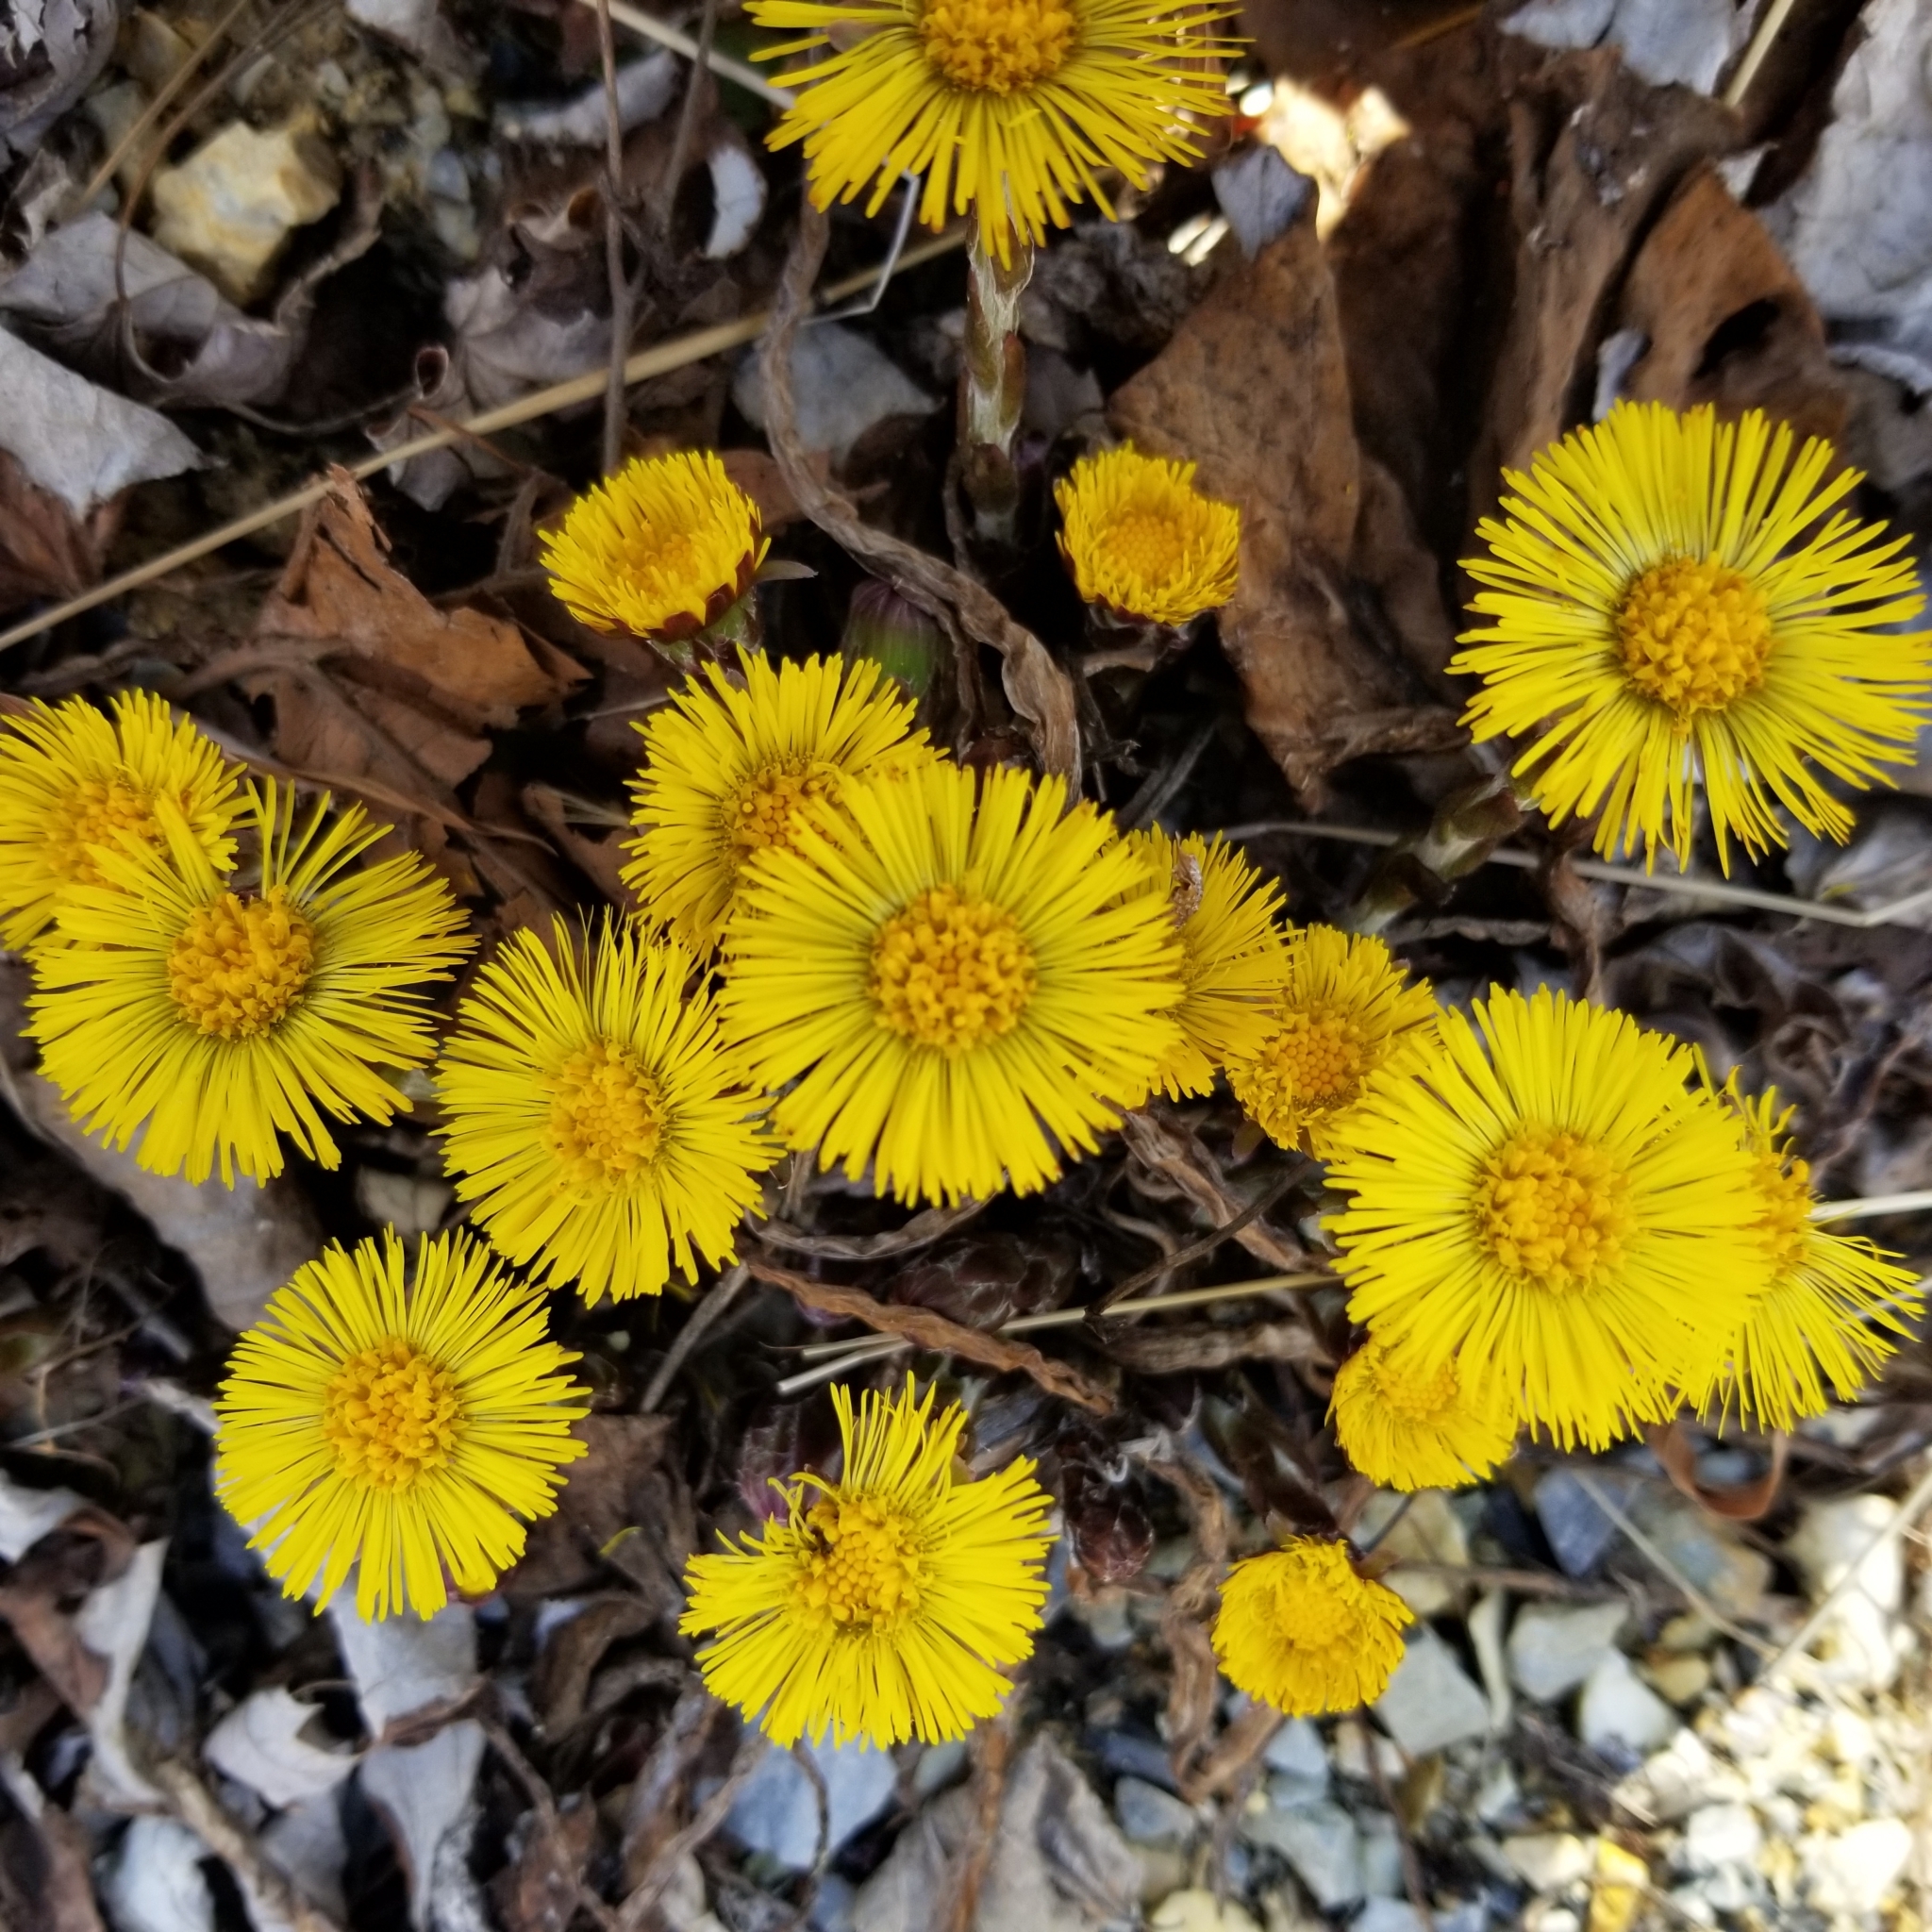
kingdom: Plantae
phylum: Tracheophyta
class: Magnoliopsida
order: Asterales
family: Asteraceae
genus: Tussilago
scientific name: Tussilago farfara
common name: Coltsfoot
